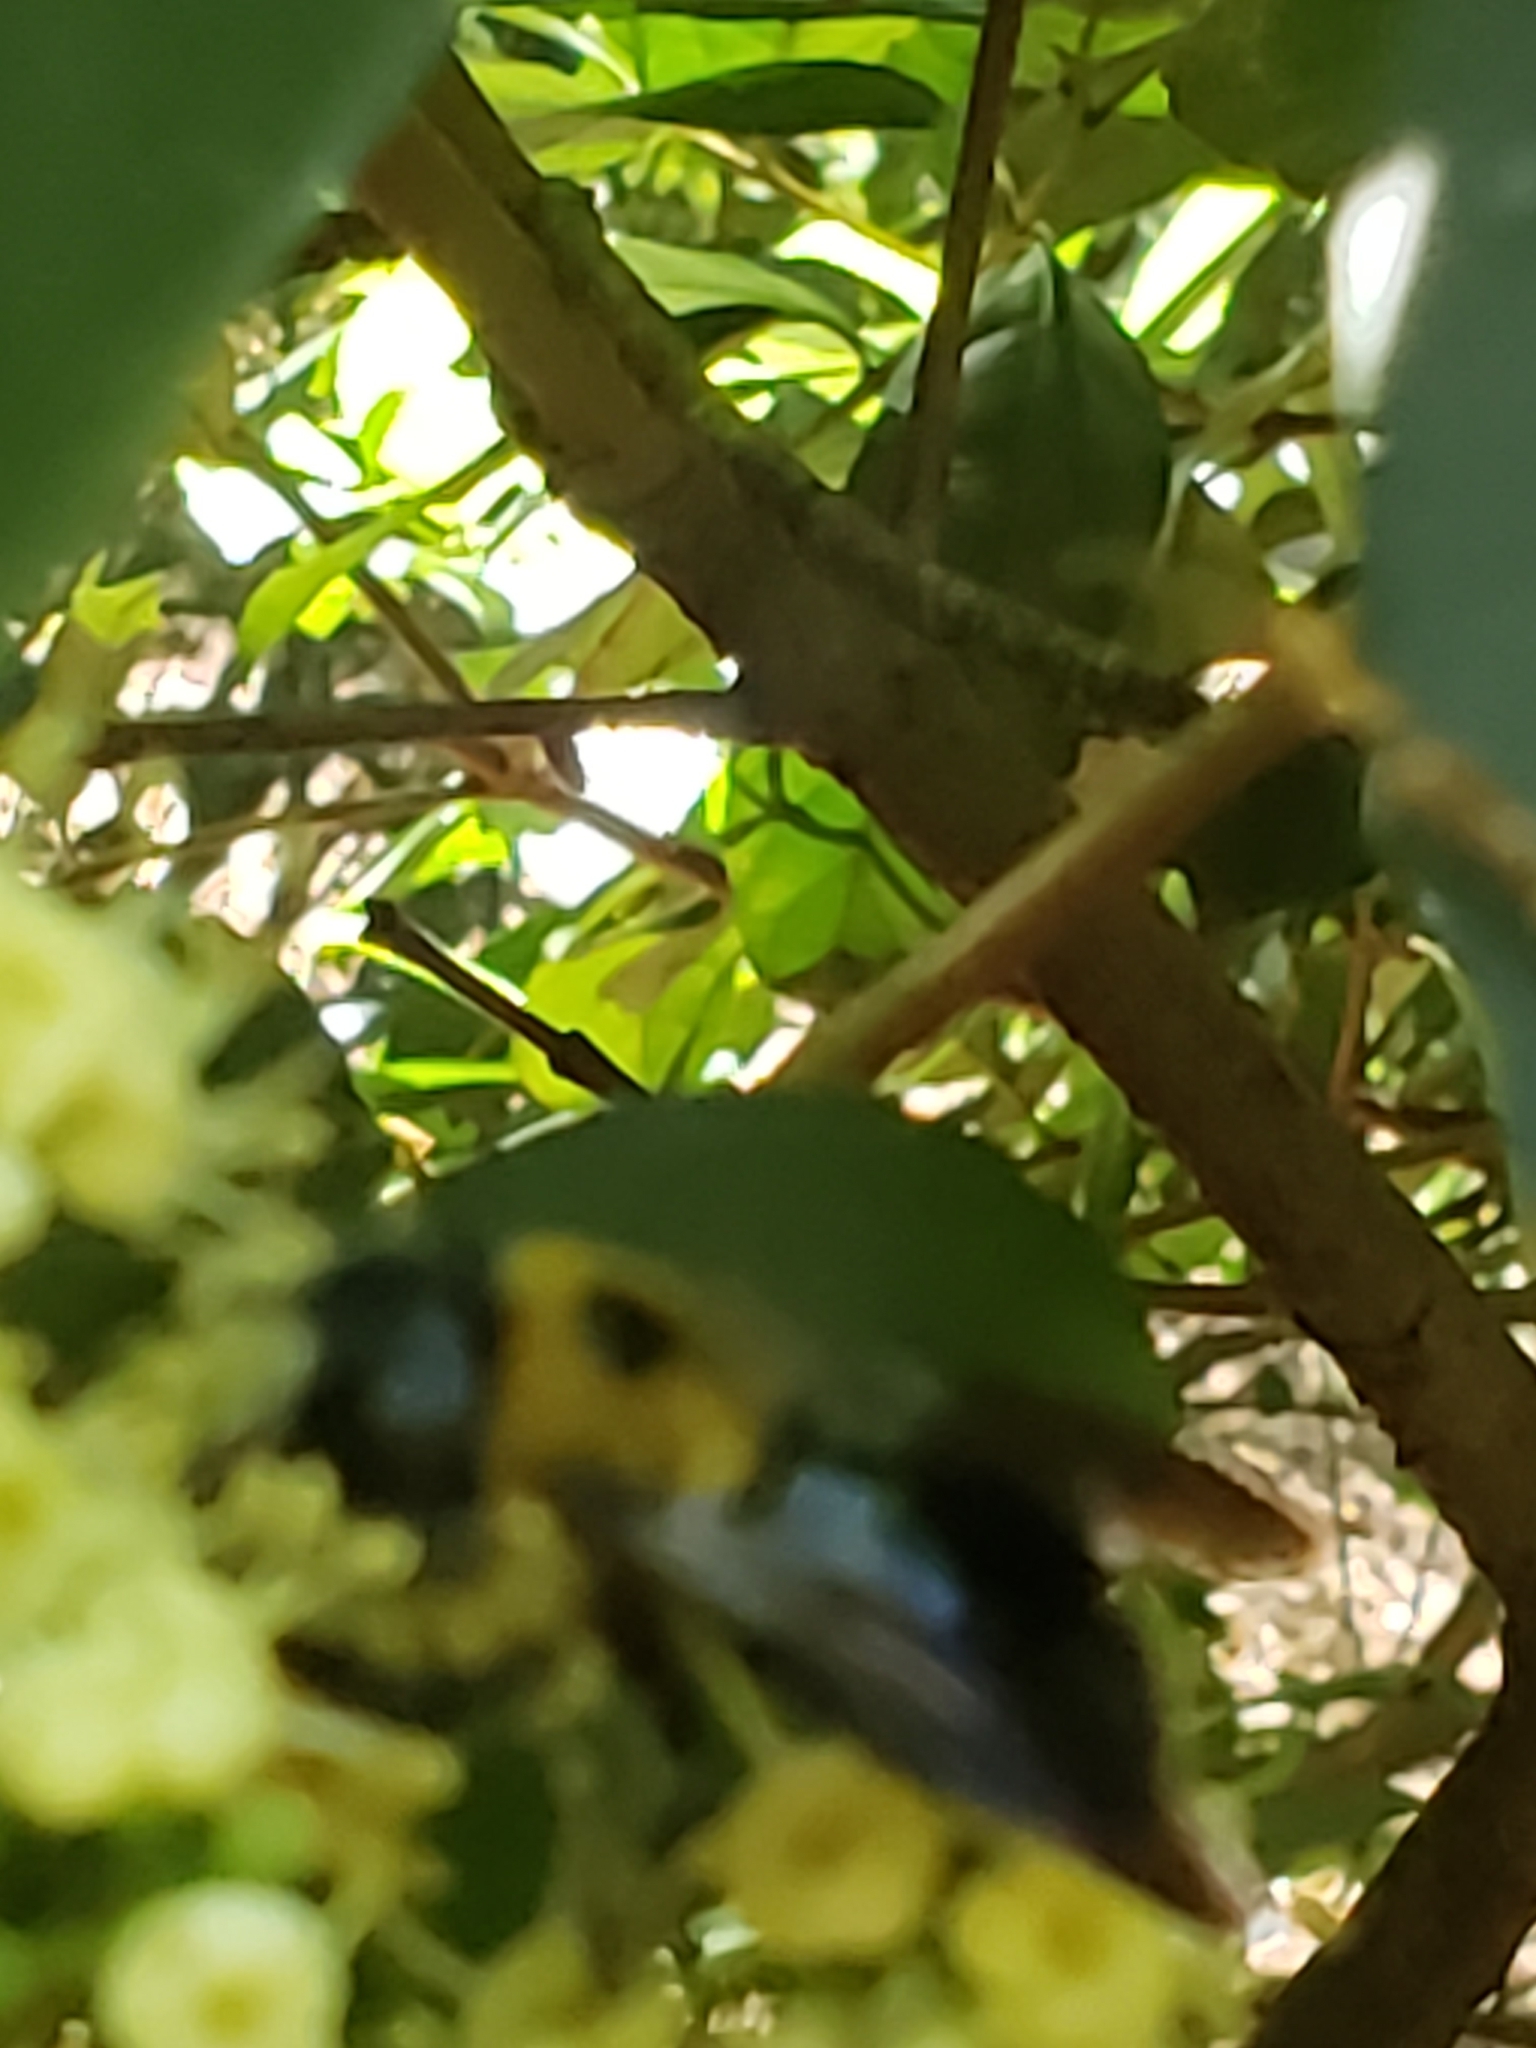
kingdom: Animalia
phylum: Arthropoda
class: Insecta
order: Hymenoptera
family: Apidae
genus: Xylocopa
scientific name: Xylocopa virginica
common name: Carpenter bee
